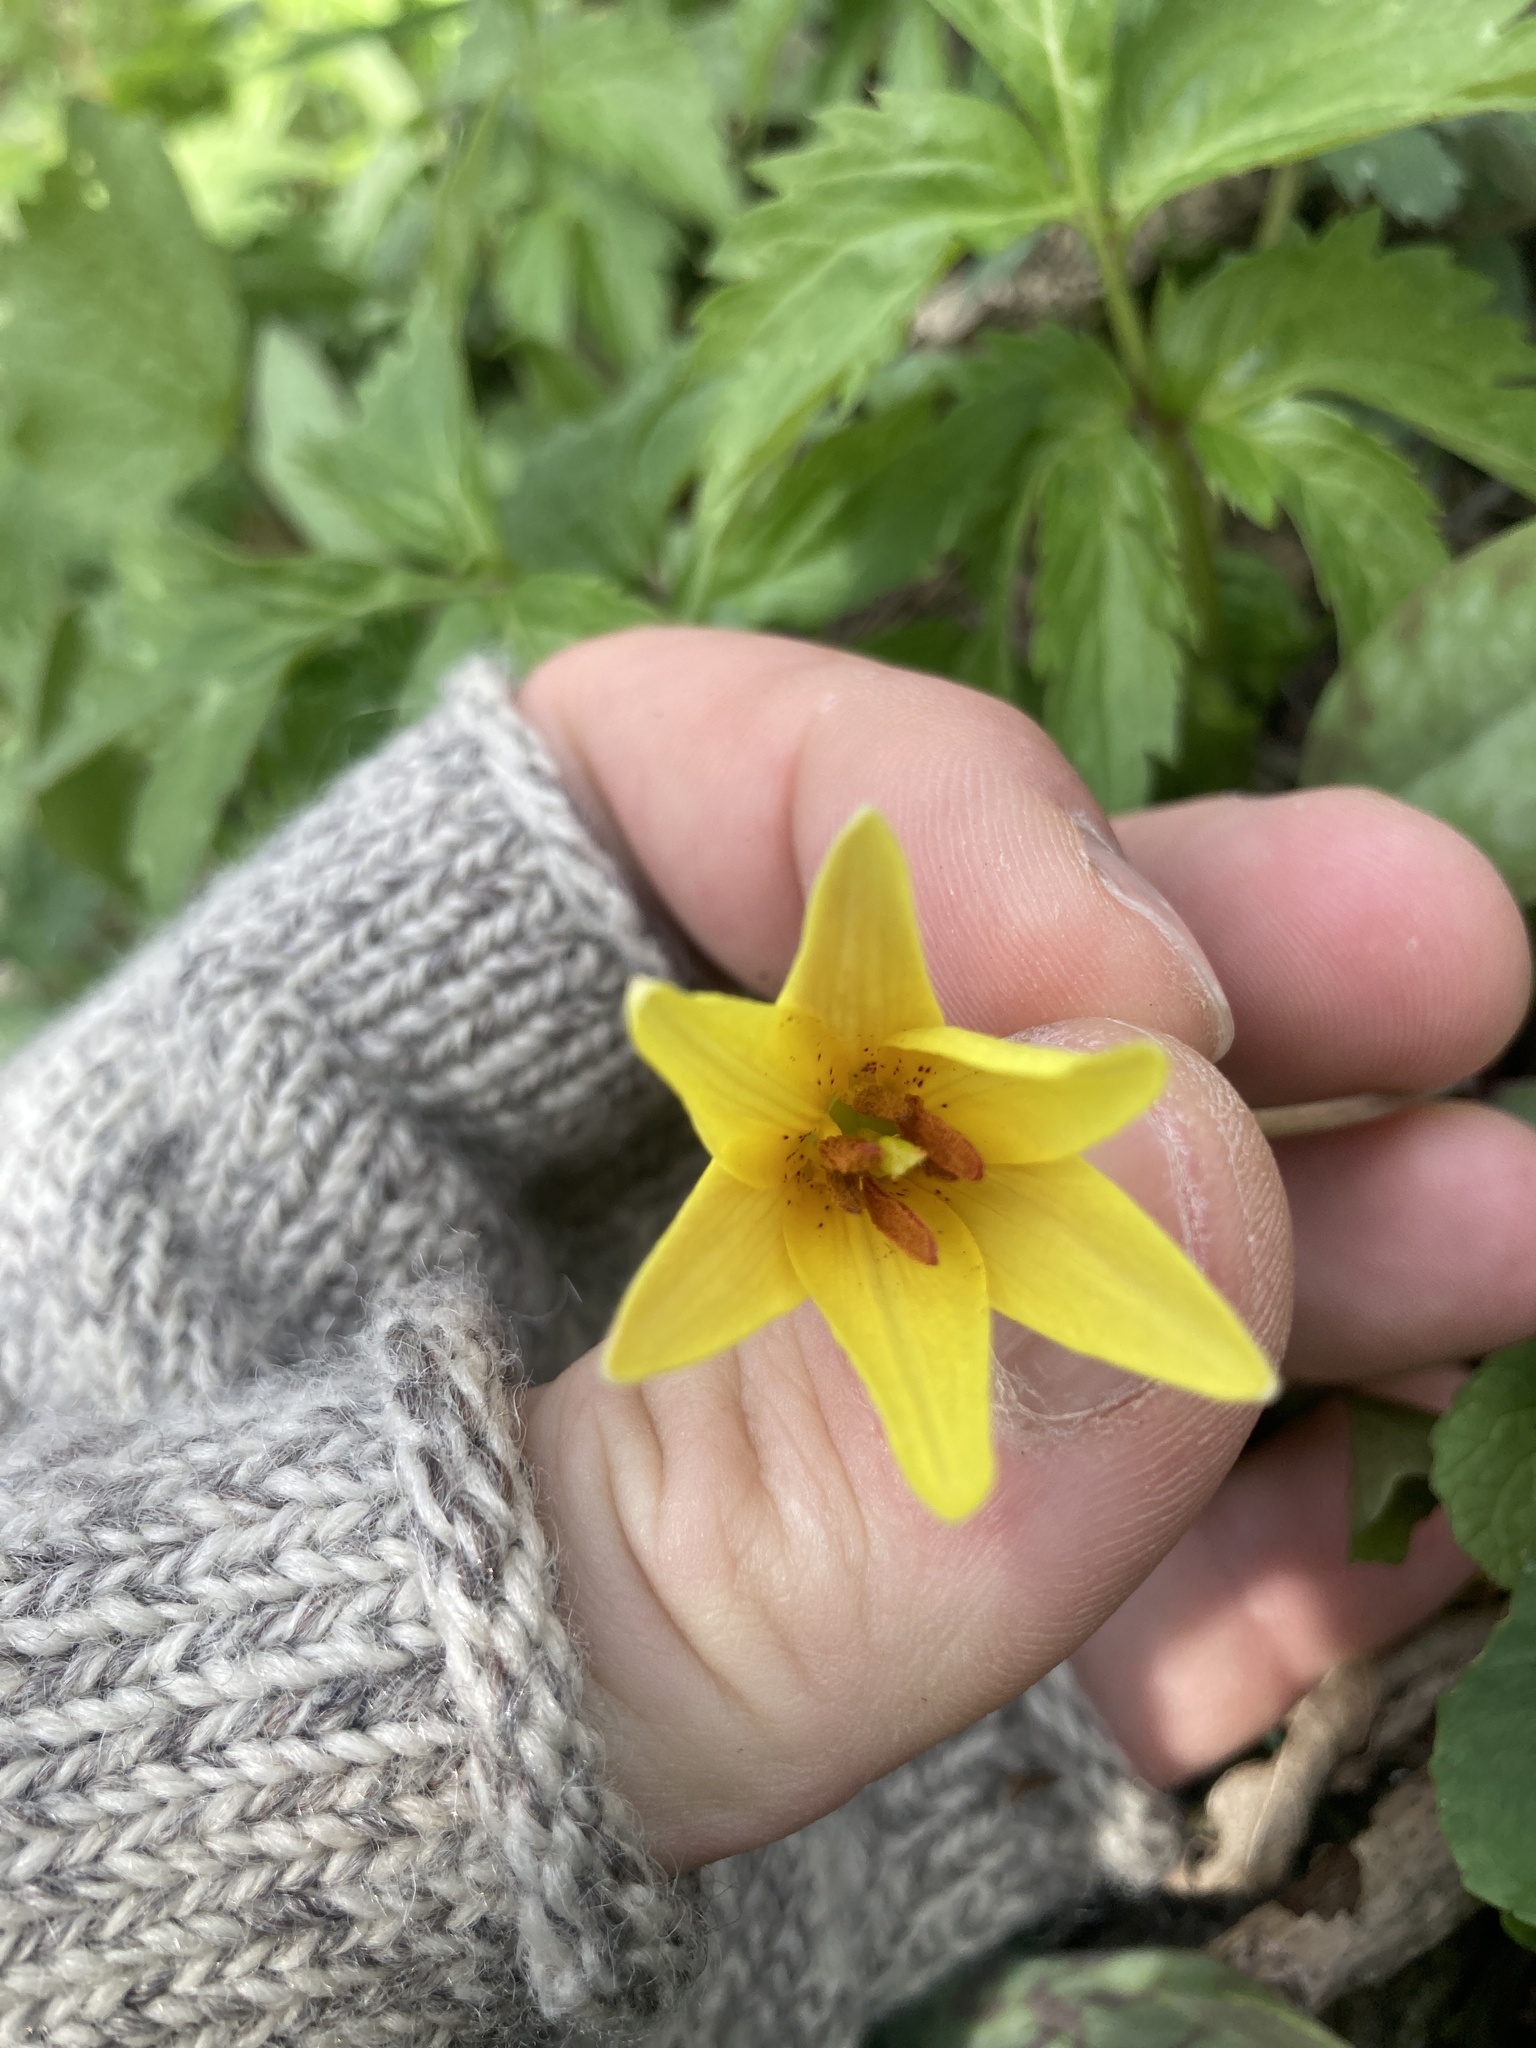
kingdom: Plantae
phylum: Tracheophyta
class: Liliopsida
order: Liliales
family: Liliaceae
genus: Erythronium
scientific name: Erythronium americanum
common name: Yellow adder's-tongue
